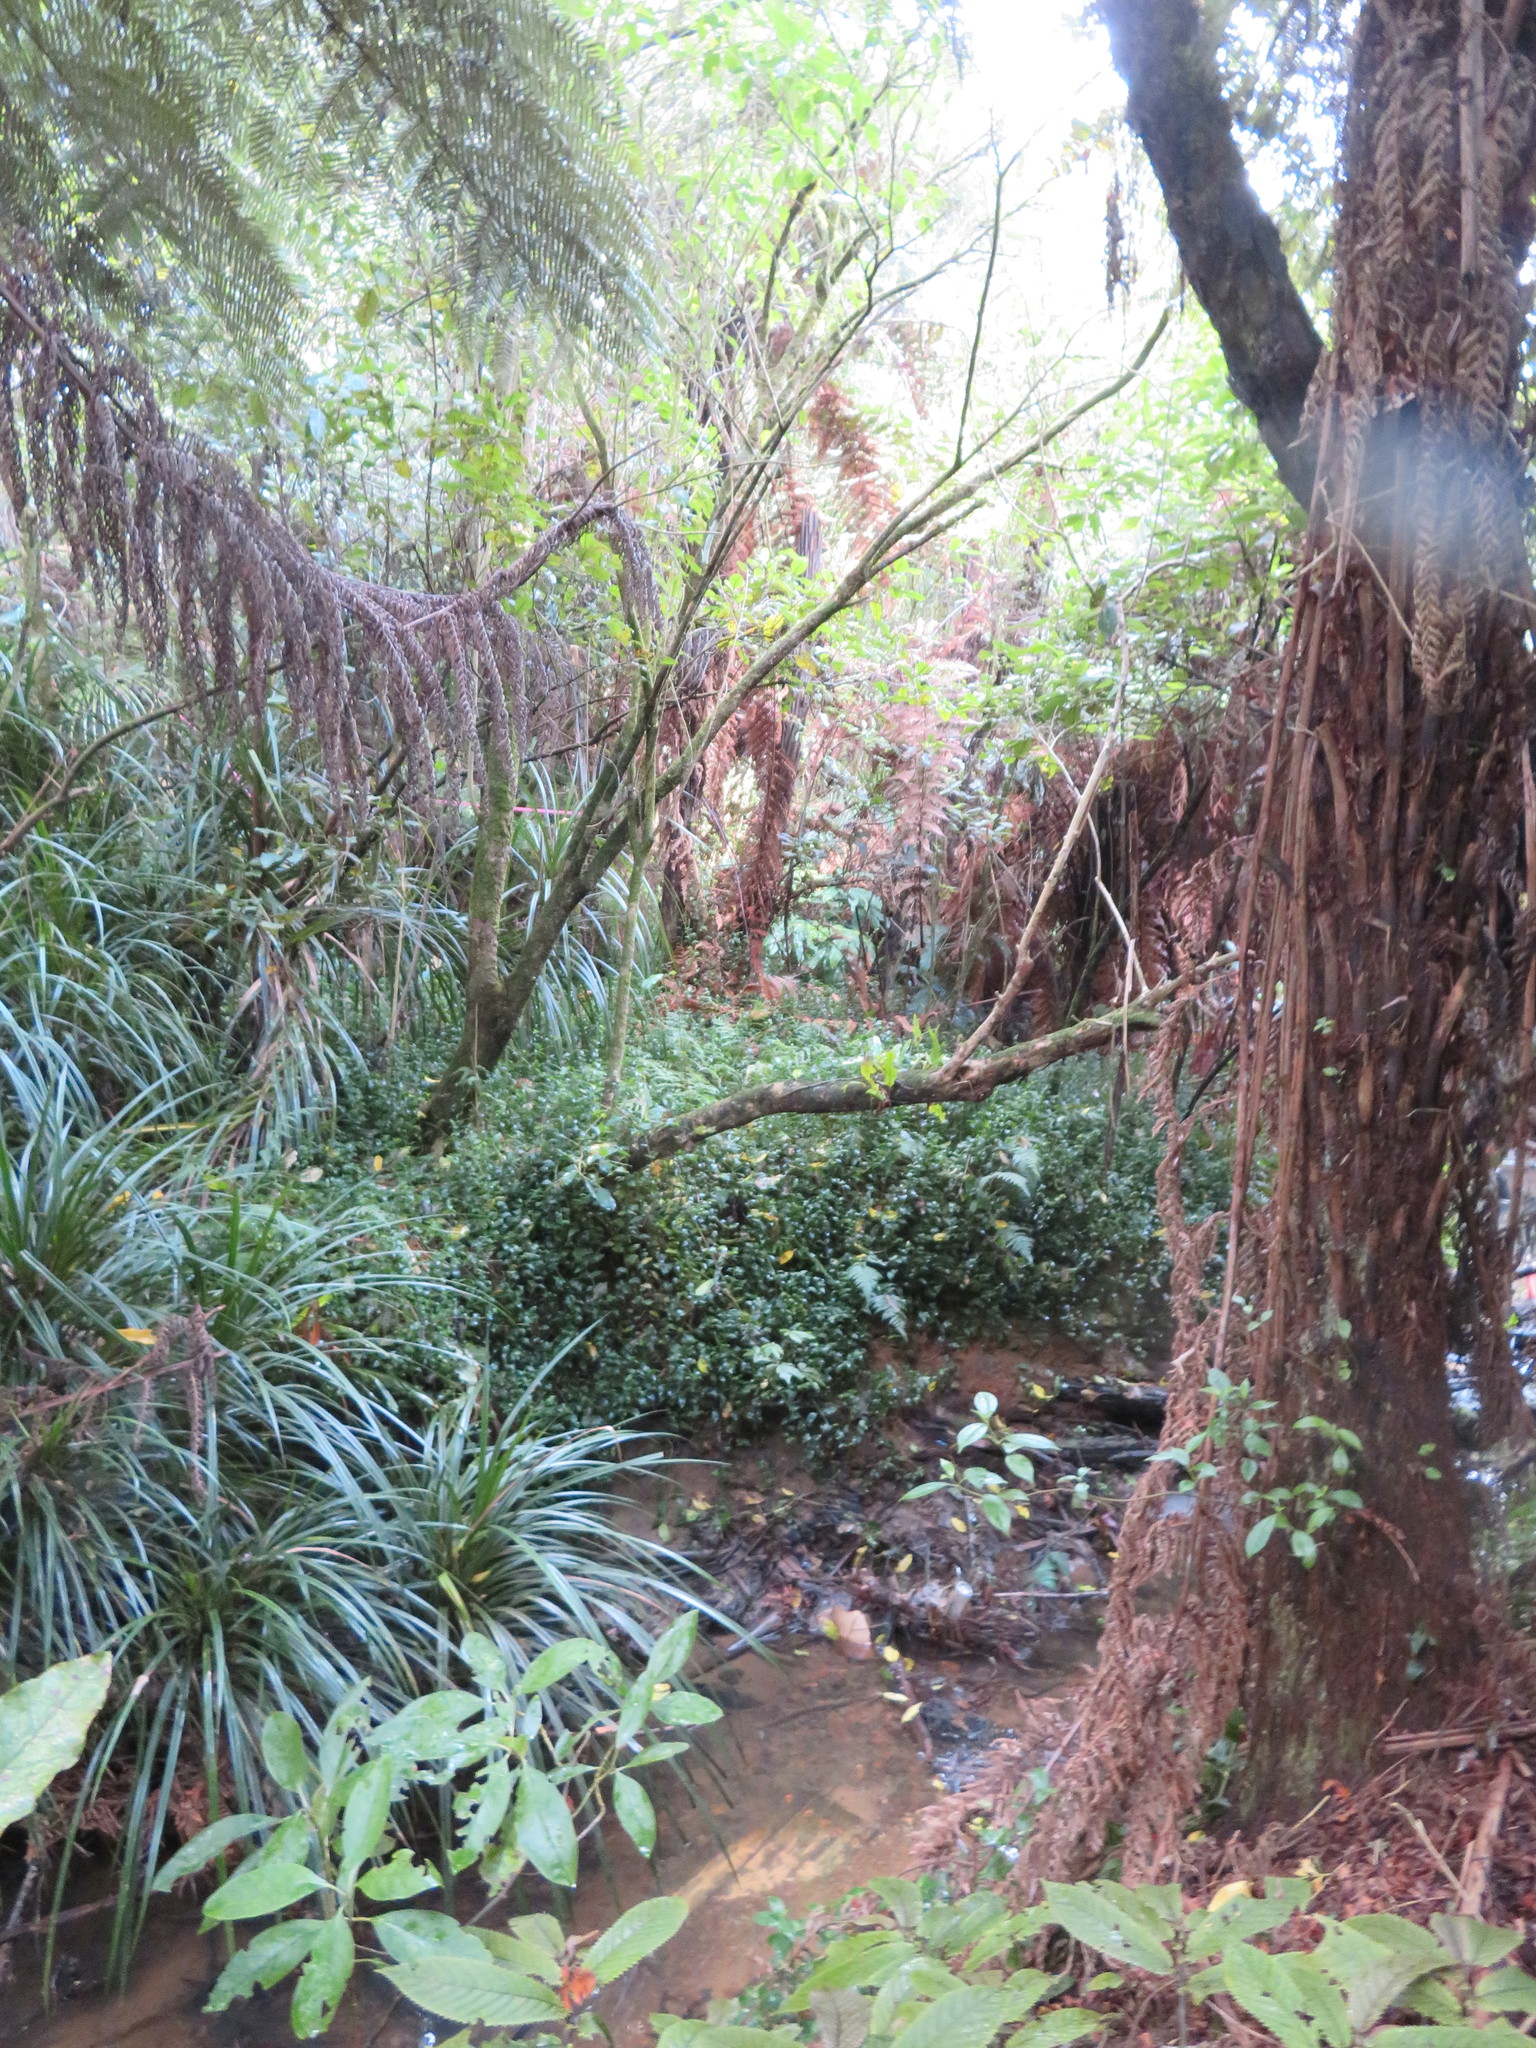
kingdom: Plantae
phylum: Tracheophyta
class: Liliopsida
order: Commelinales
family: Commelinaceae
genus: Tradescantia
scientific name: Tradescantia fluminensis
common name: Wandering-jew
